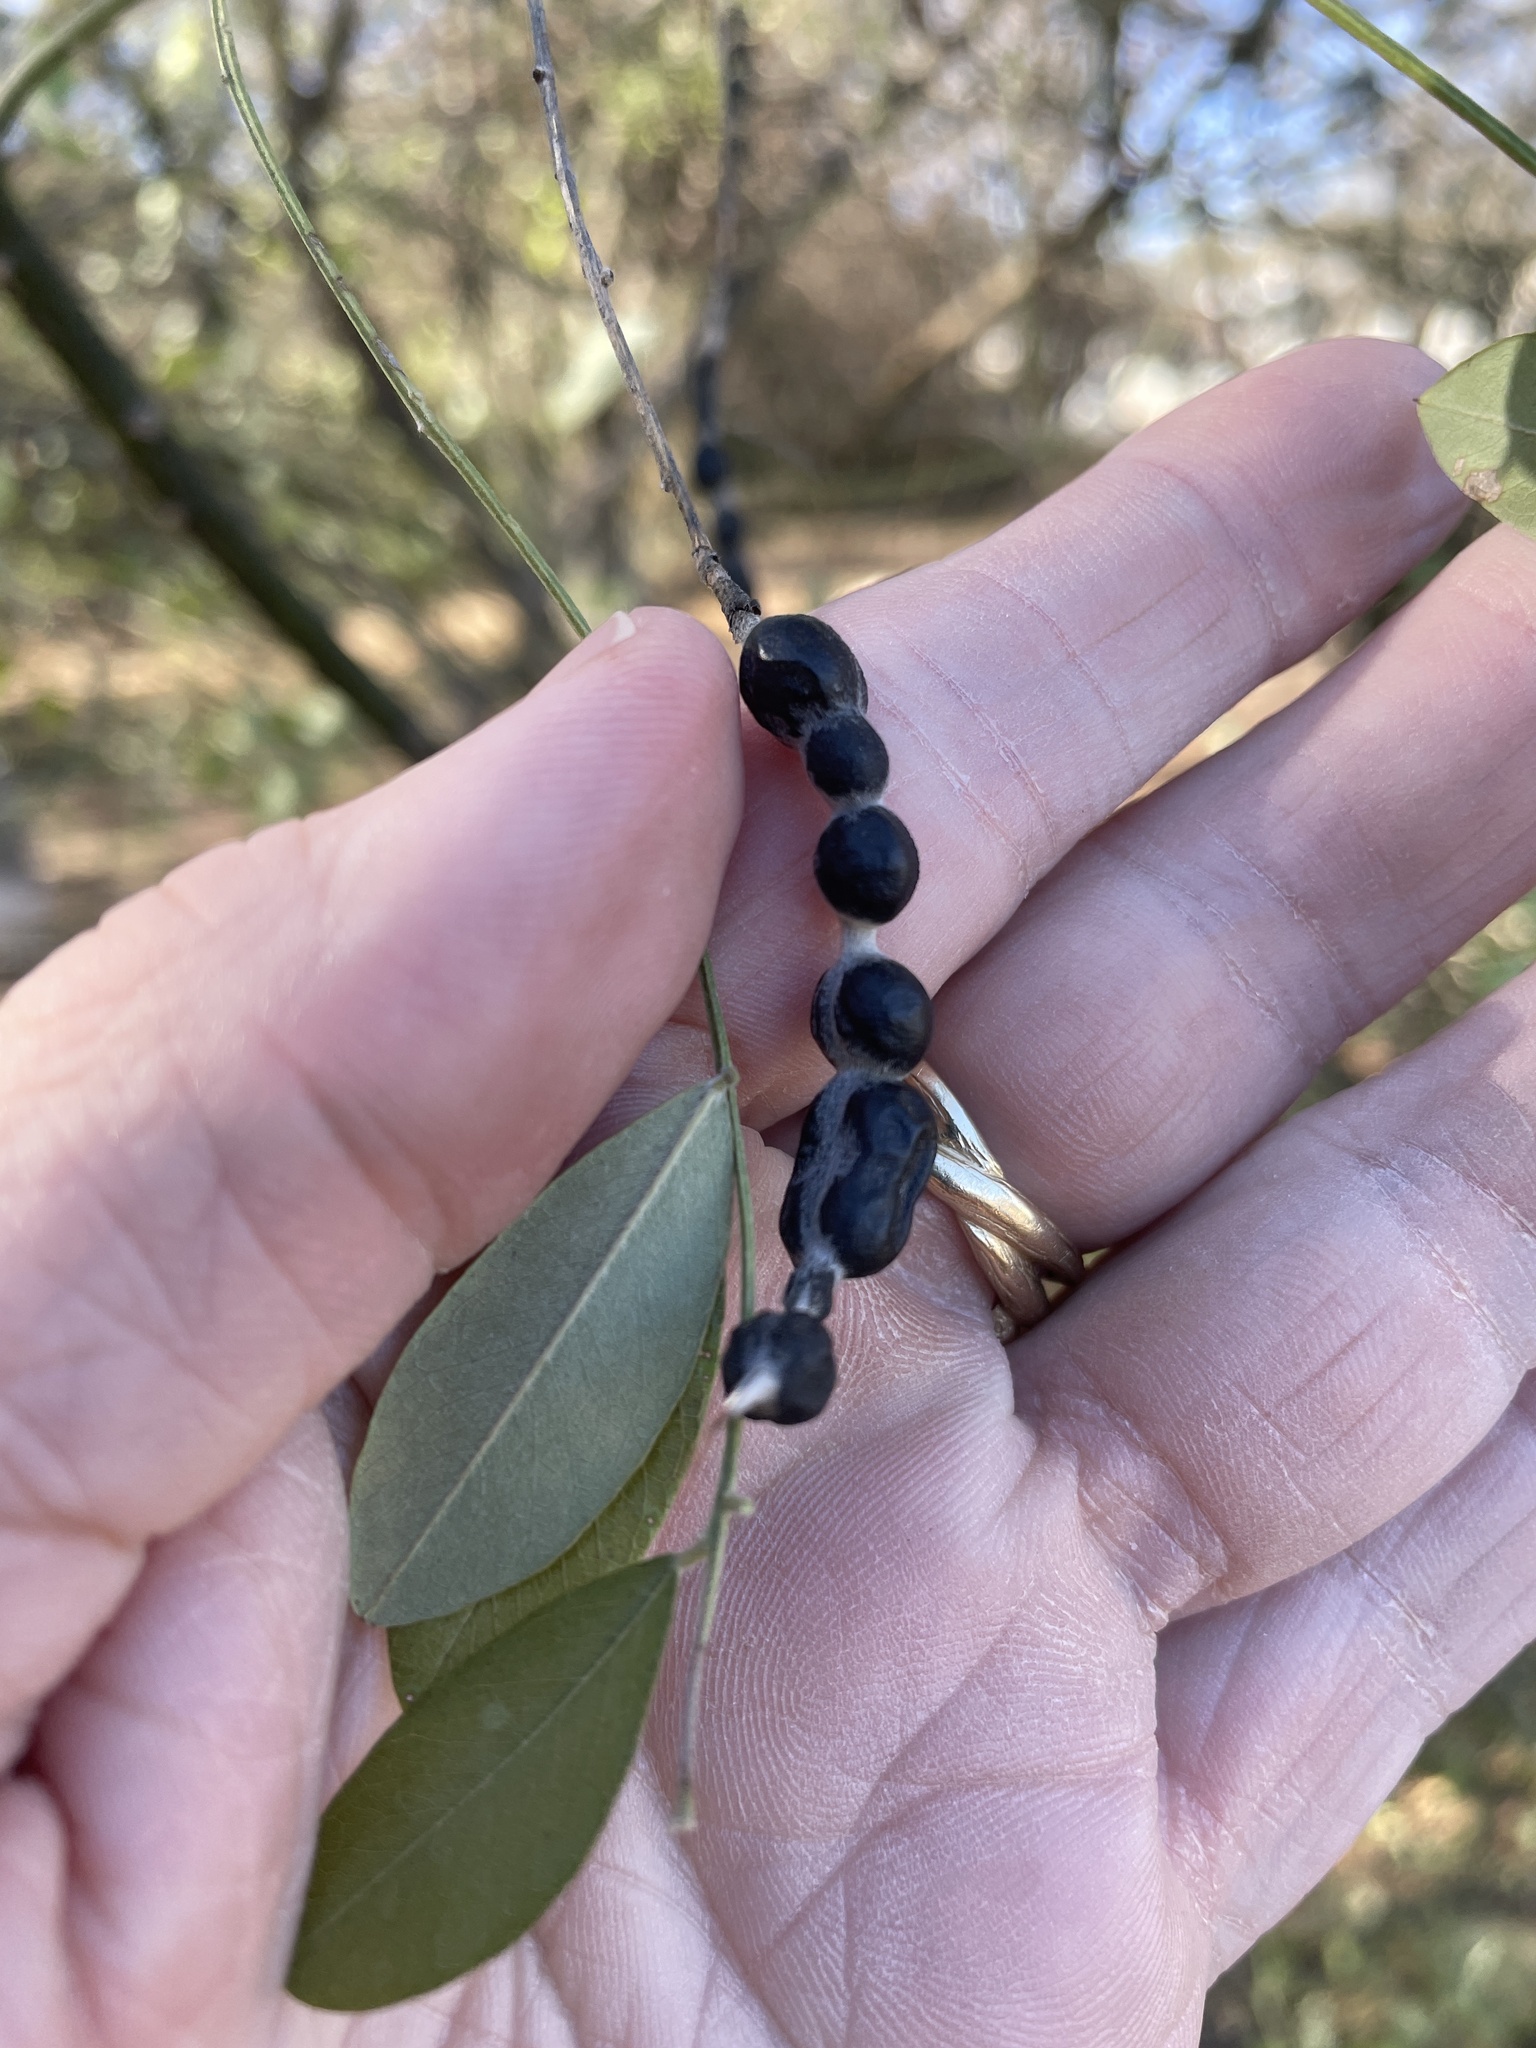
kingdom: Plantae
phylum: Tracheophyta
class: Magnoliopsida
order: Fabales
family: Fabaceae
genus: Styphnolobium
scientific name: Styphnolobium affine
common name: Texas sophora
